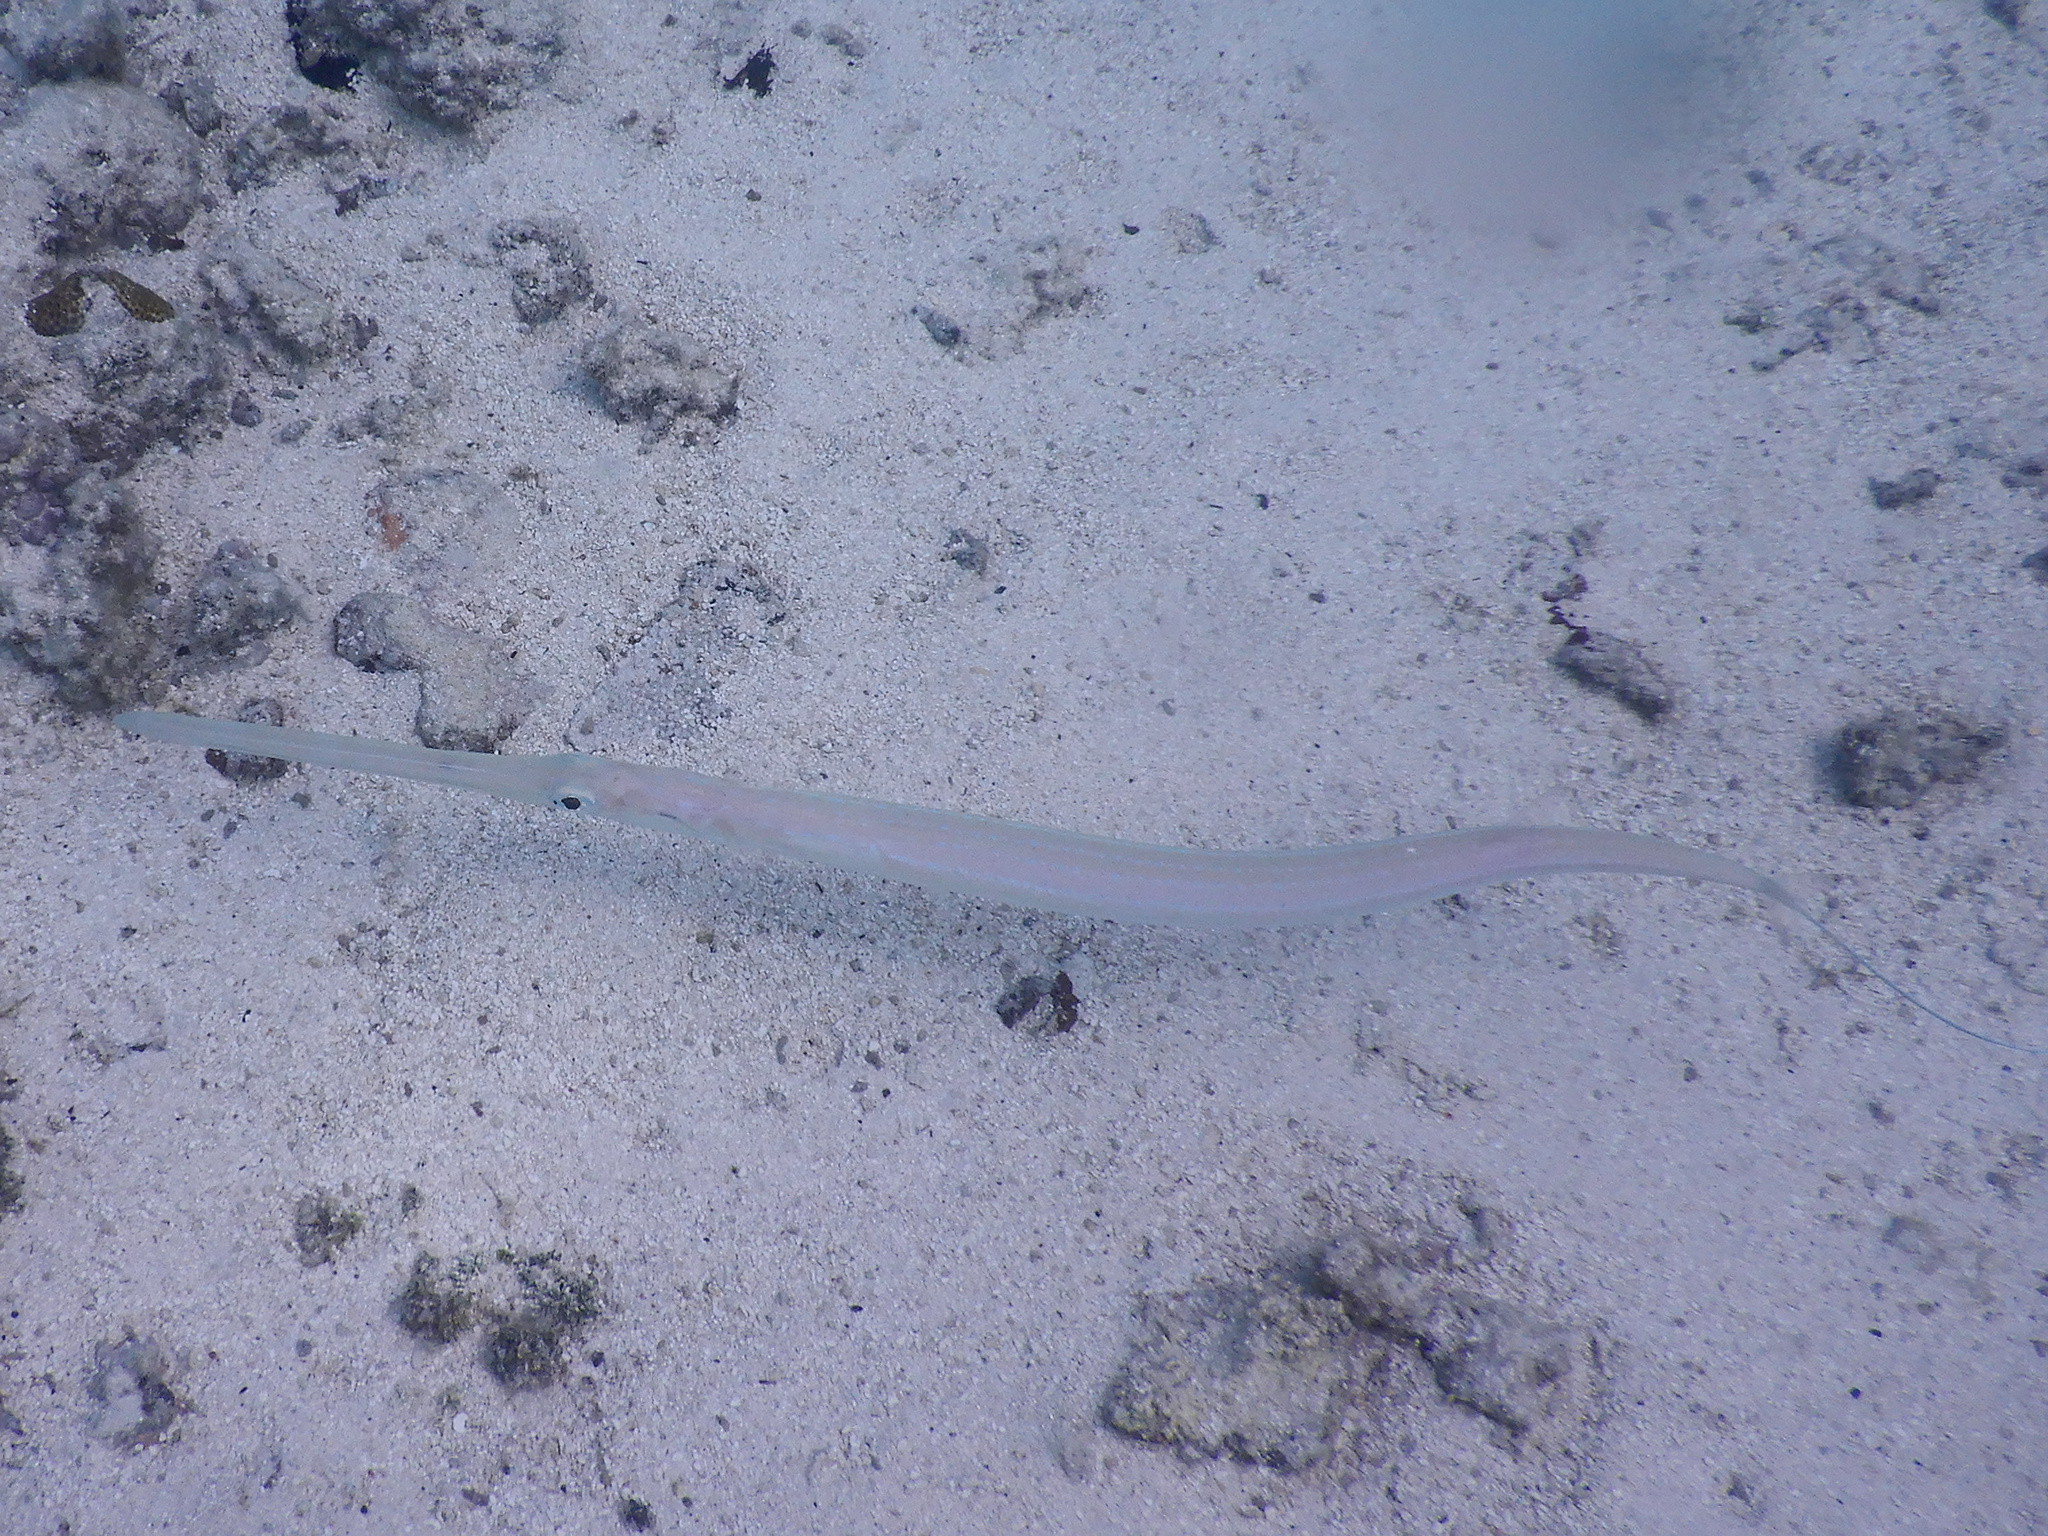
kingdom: Animalia
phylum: Chordata
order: Syngnathiformes
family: Fistulariidae
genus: Fistularia
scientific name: Fistularia commersonii
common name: Bluespotted cornetfish
